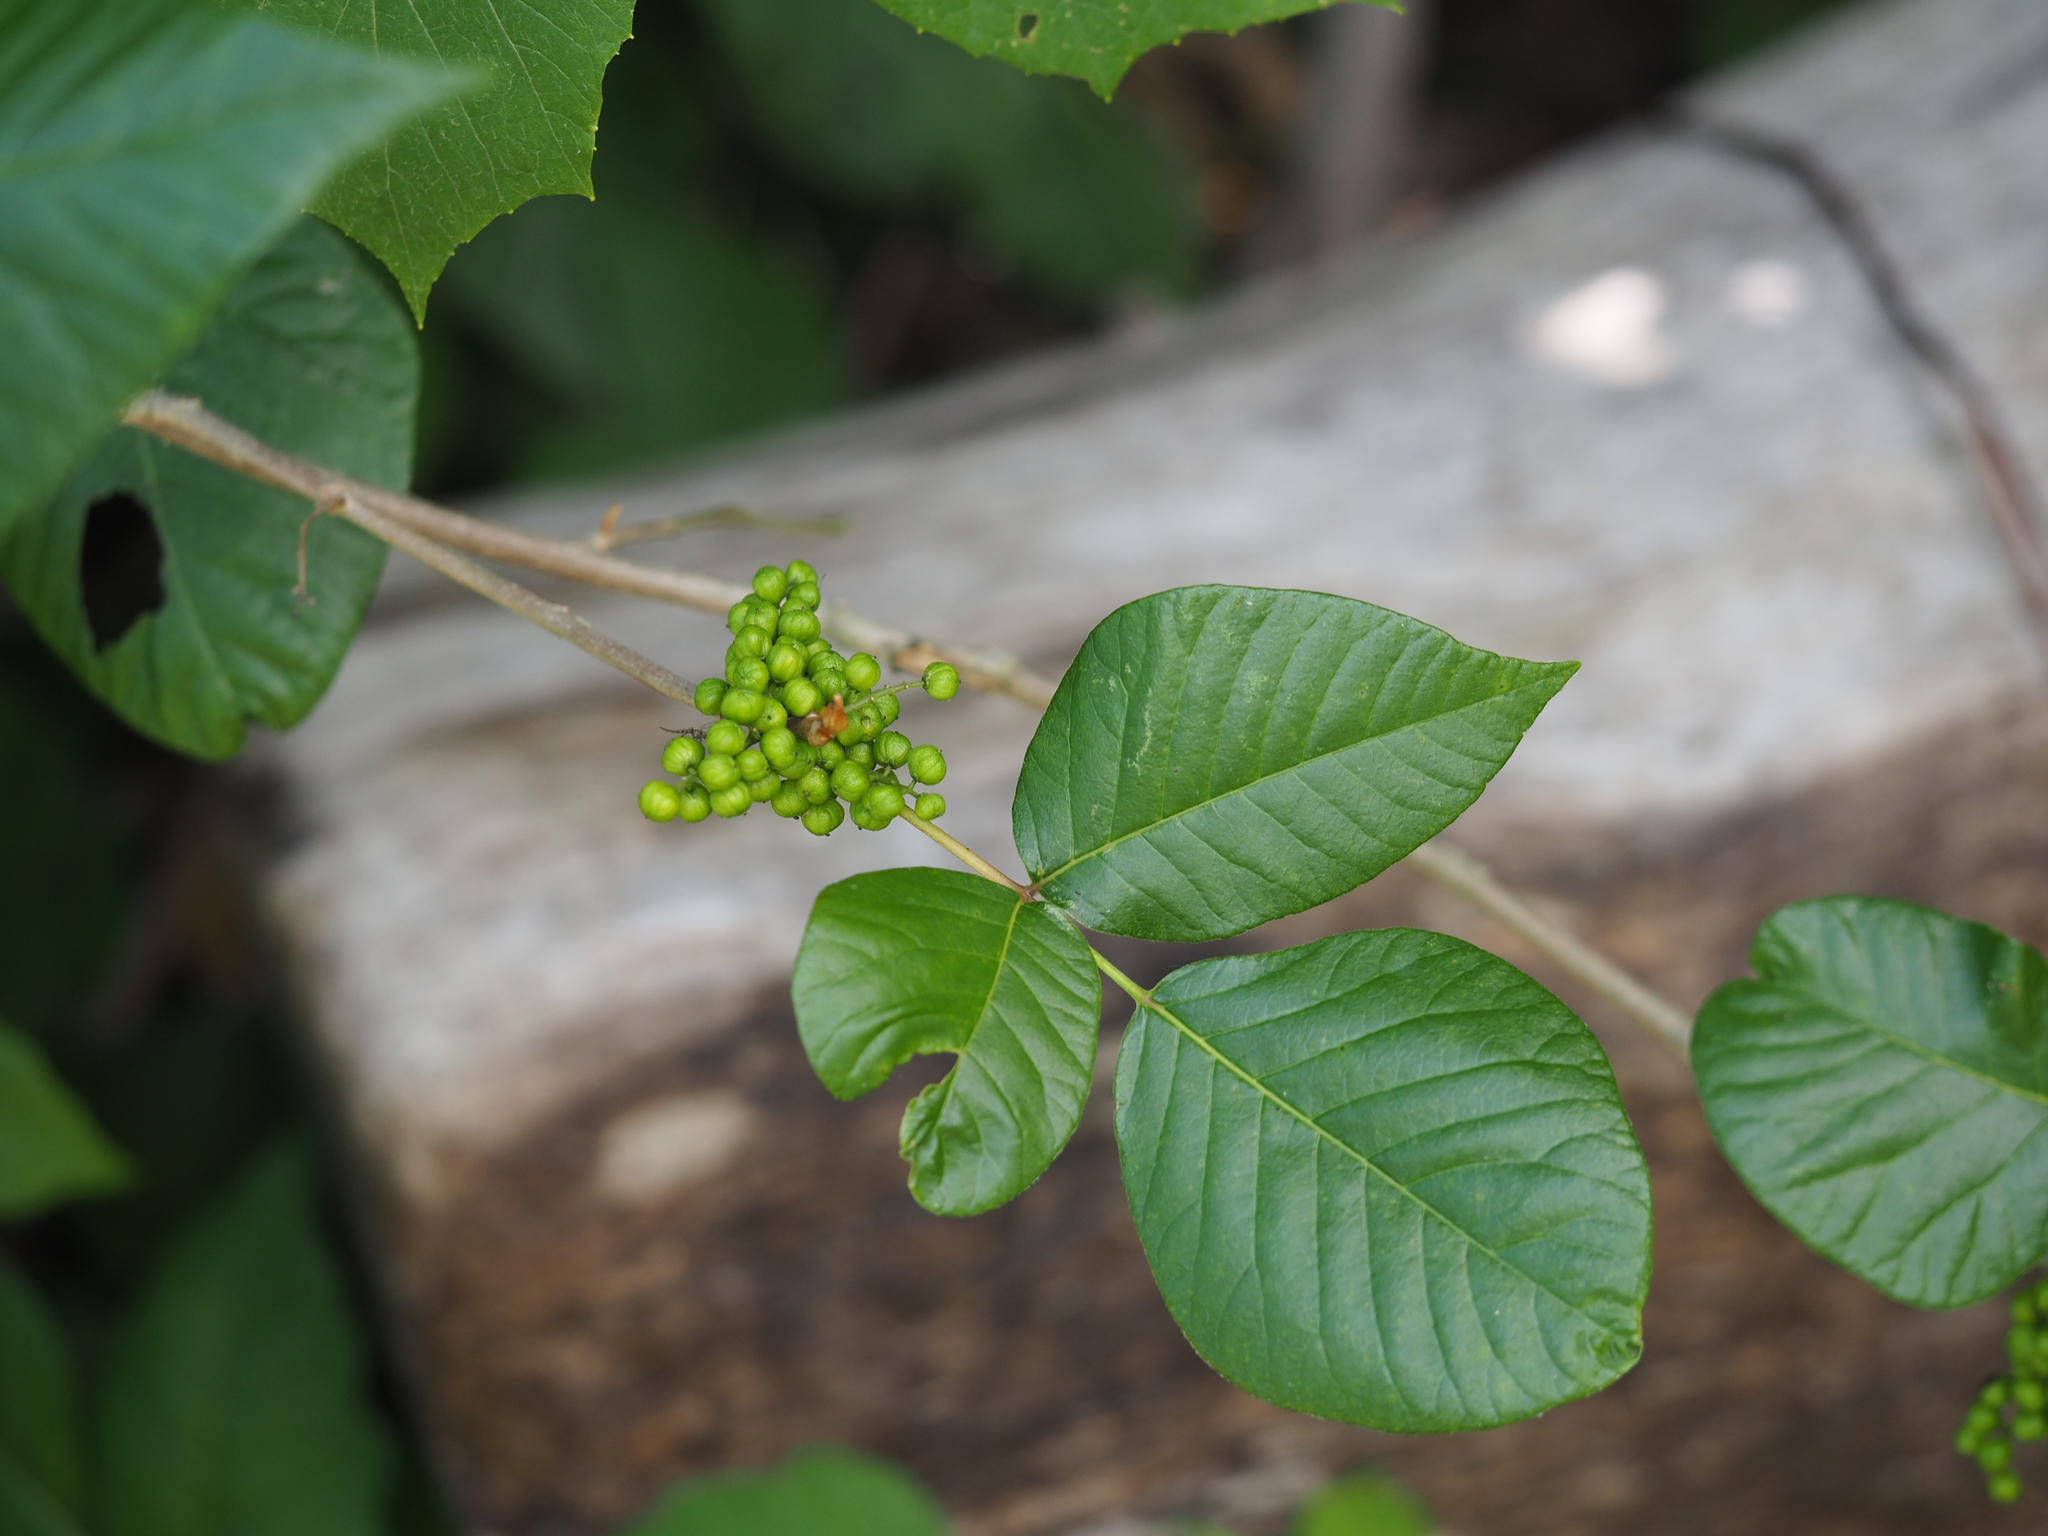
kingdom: Plantae
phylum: Tracheophyta
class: Magnoliopsida
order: Sapindales
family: Anacardiaceae
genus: Toxicodendron
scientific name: Toxicodendron radicans
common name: Poison ivy
